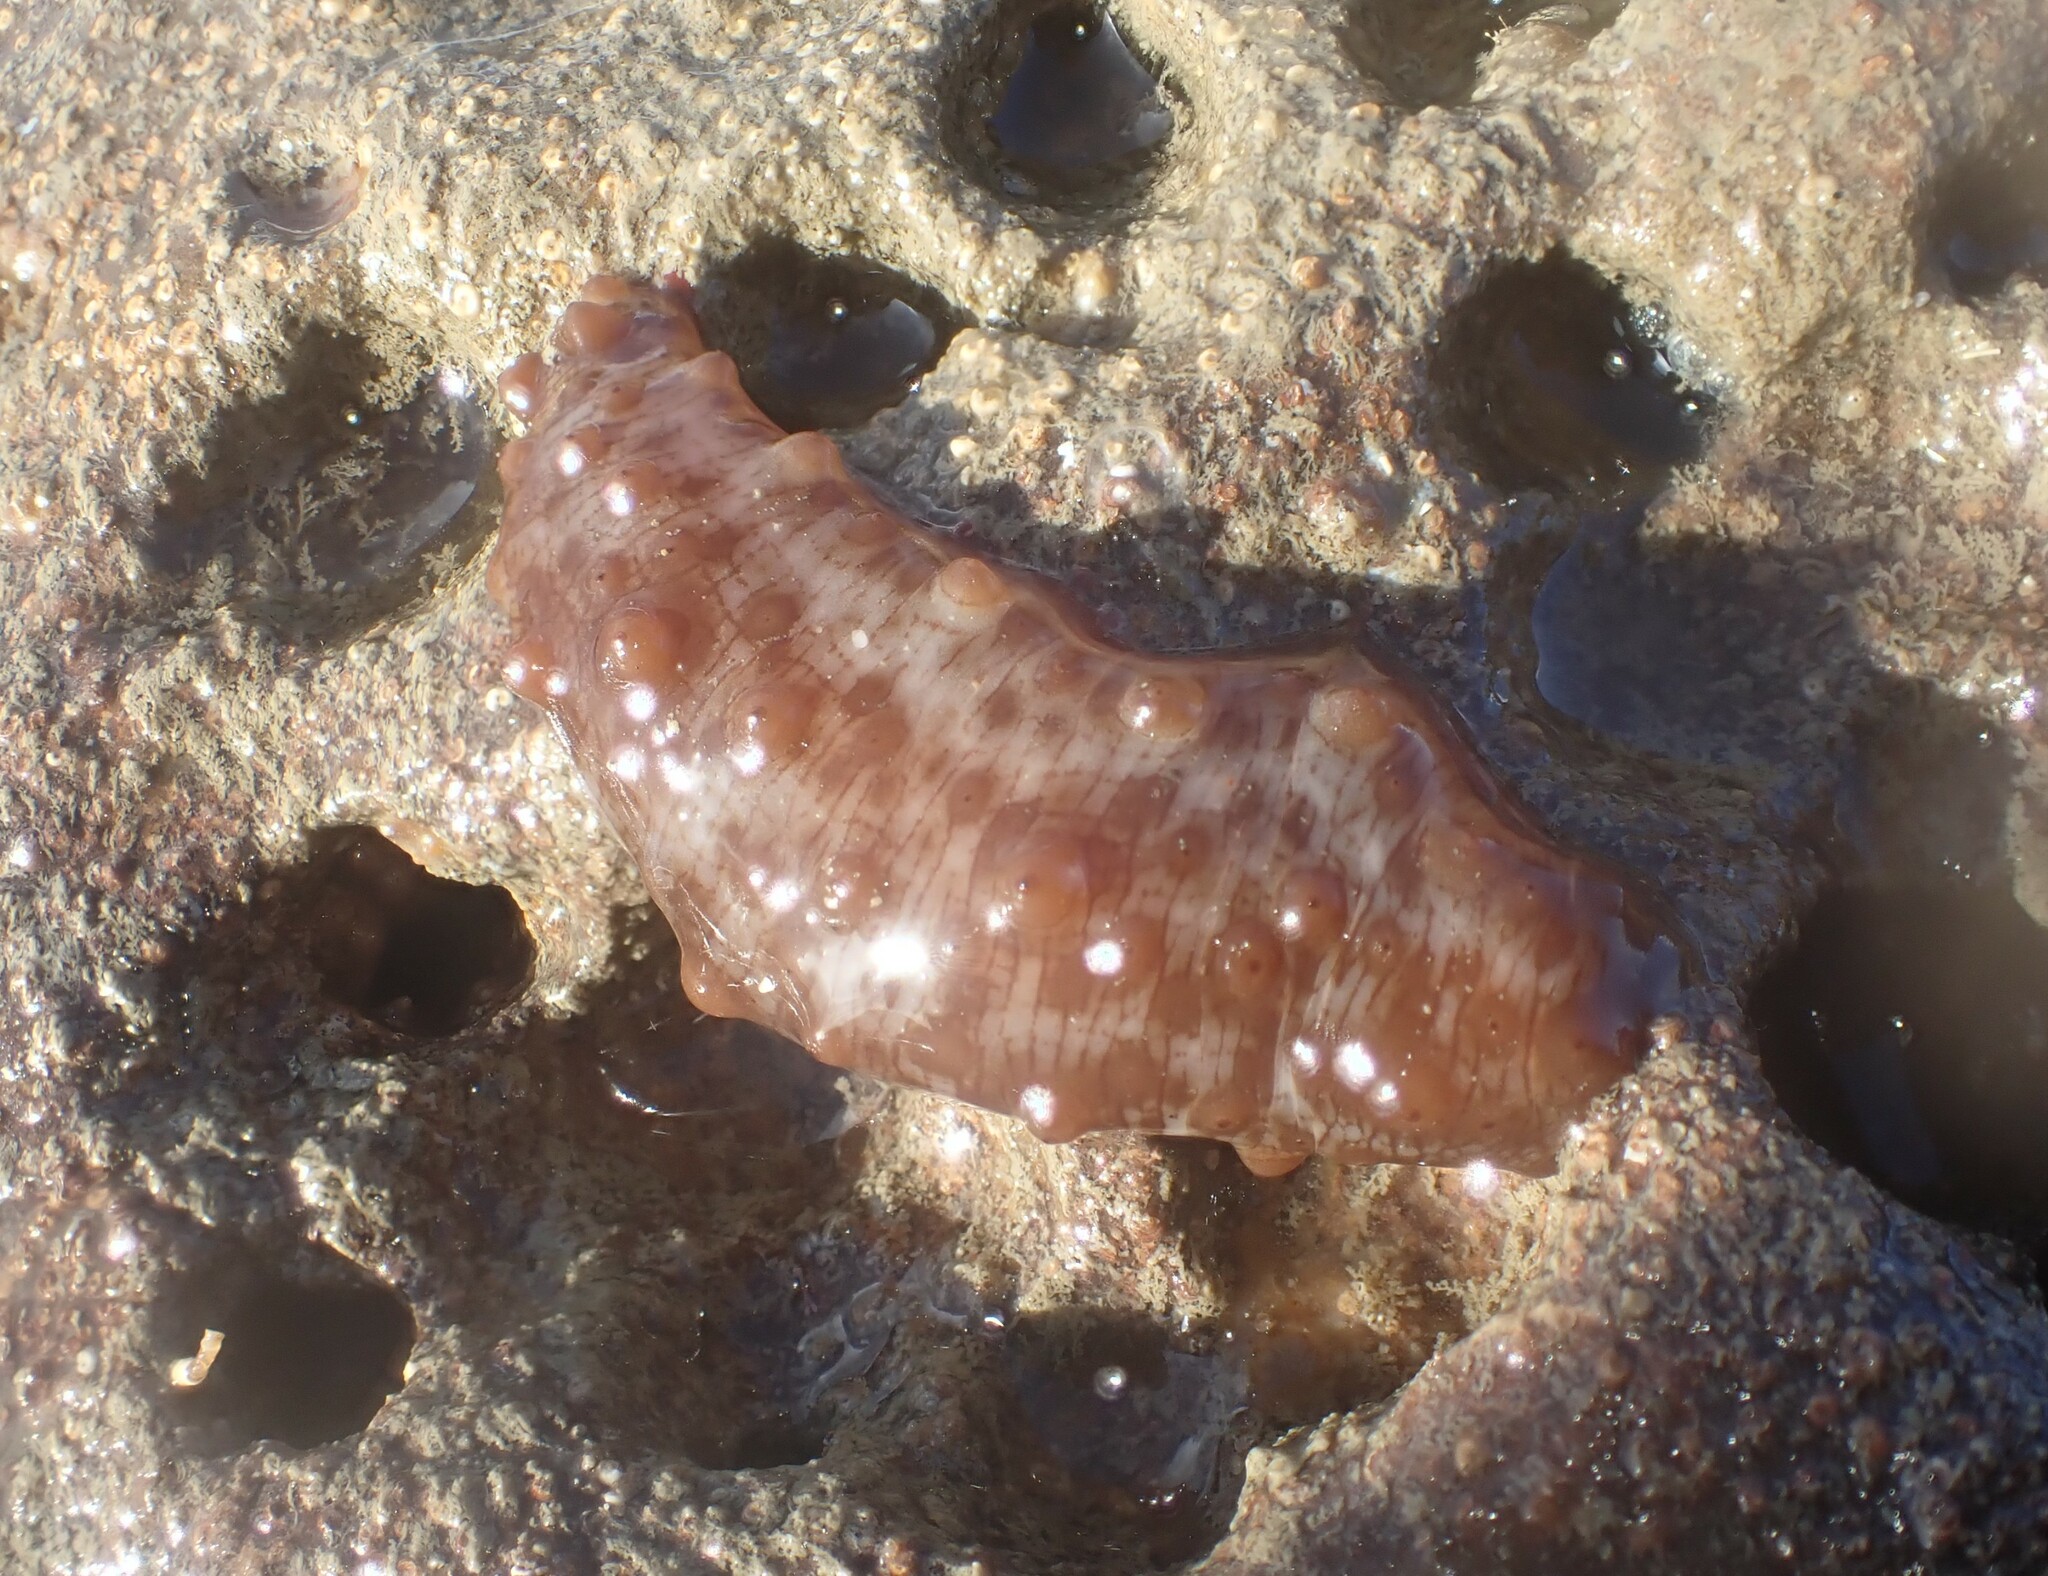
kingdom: Animalia
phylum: Echinodermata
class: Holothuroidea
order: Synallactida
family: Stichopodidae
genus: Australostichopus
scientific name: Australostichopus mollis
